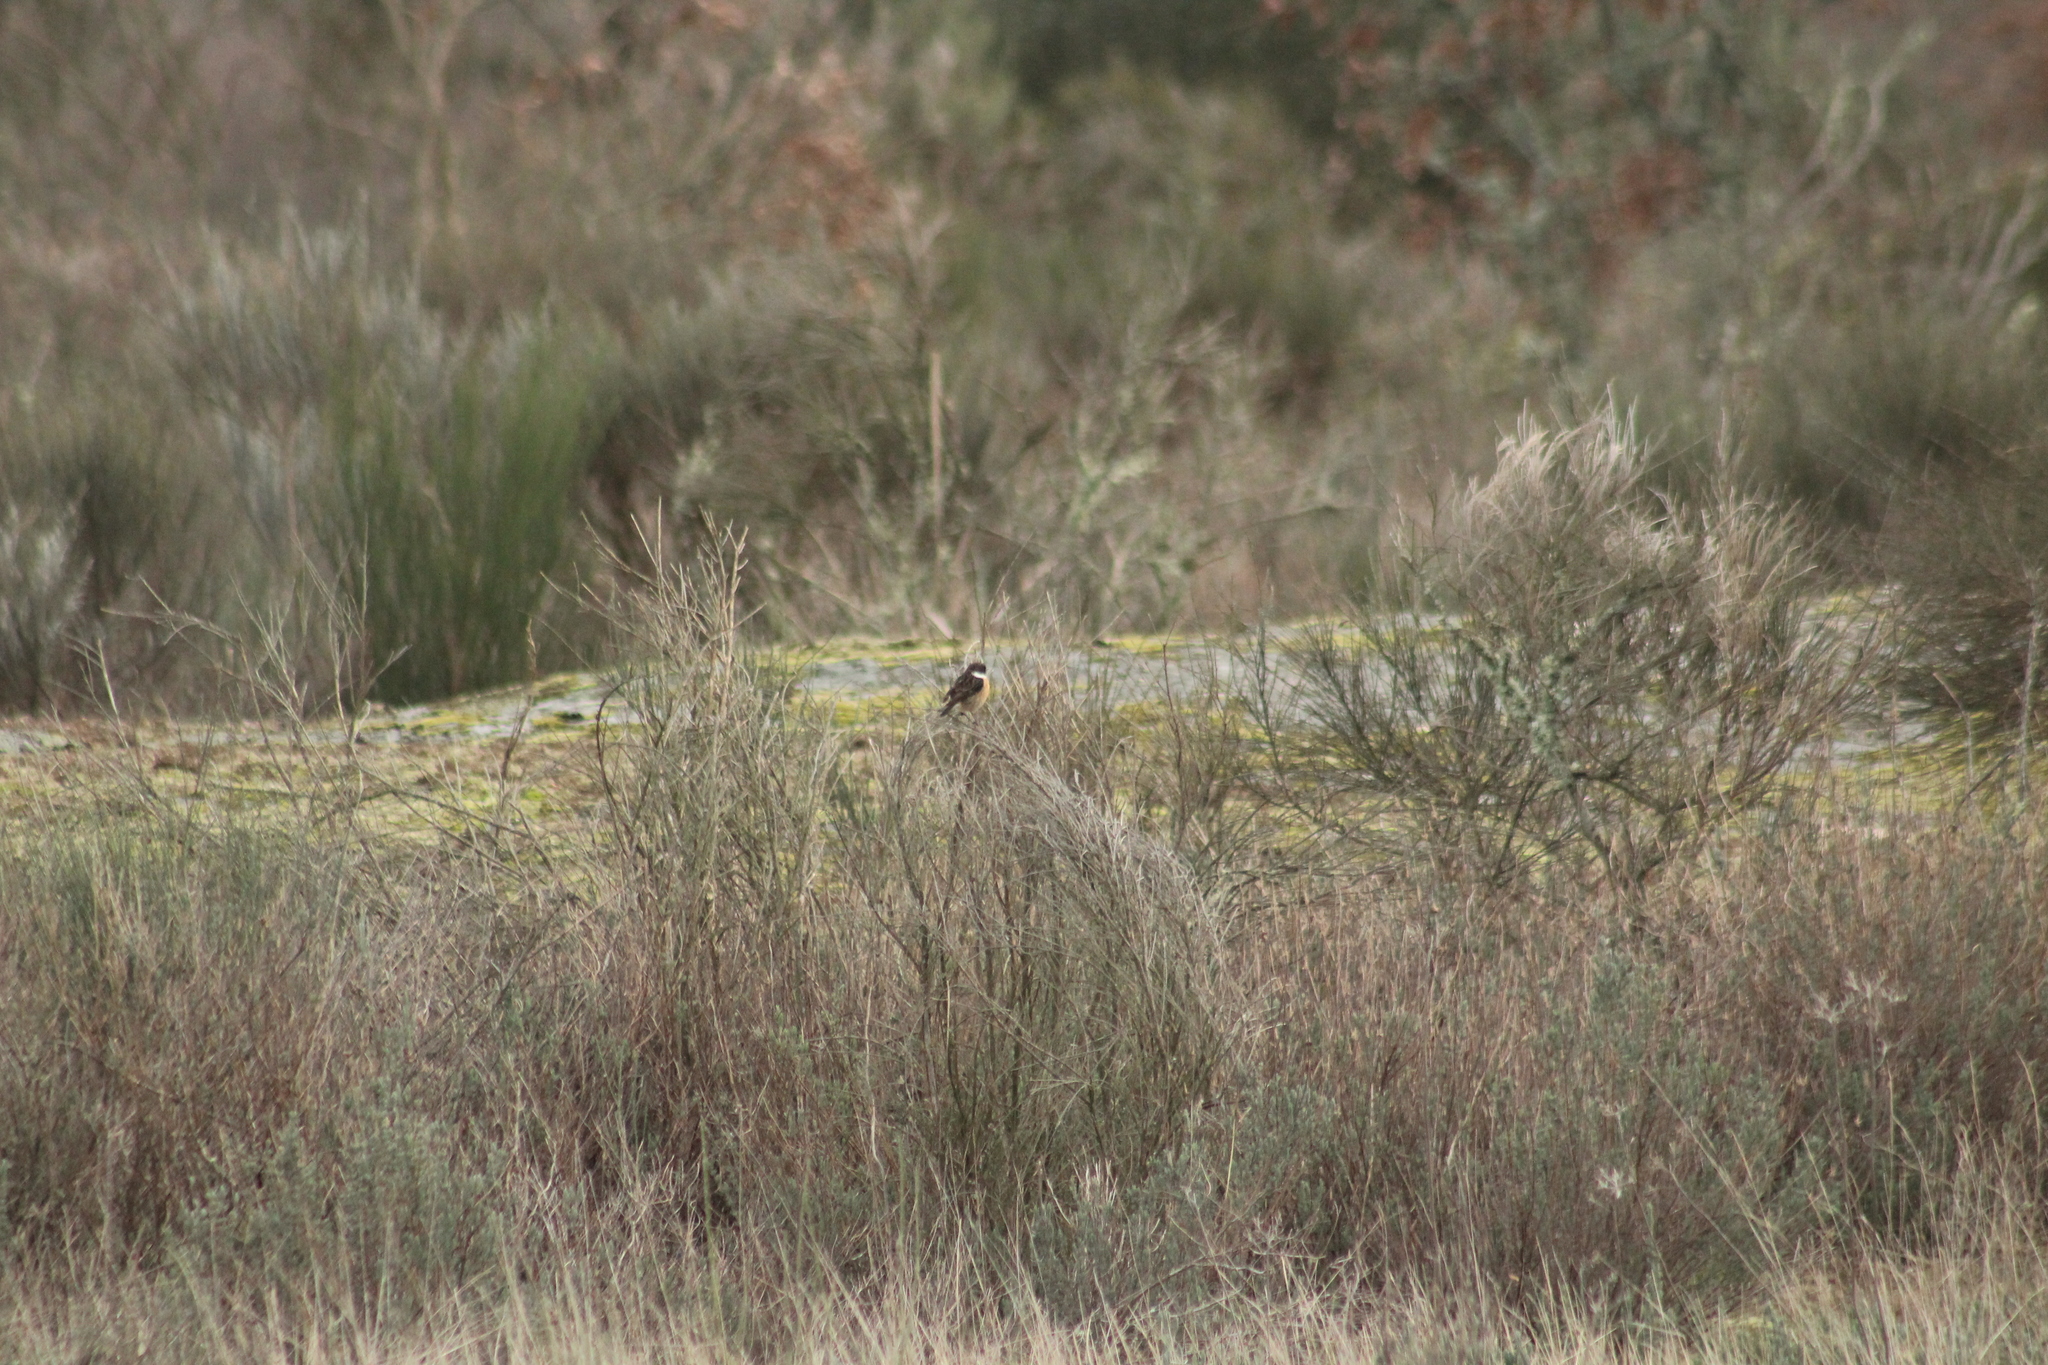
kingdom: Animalia
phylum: Chordata
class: Aves
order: Passeriformes
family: Muscicapidae
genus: Saxicola
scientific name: Saxicola rubicola
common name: European stonechat
